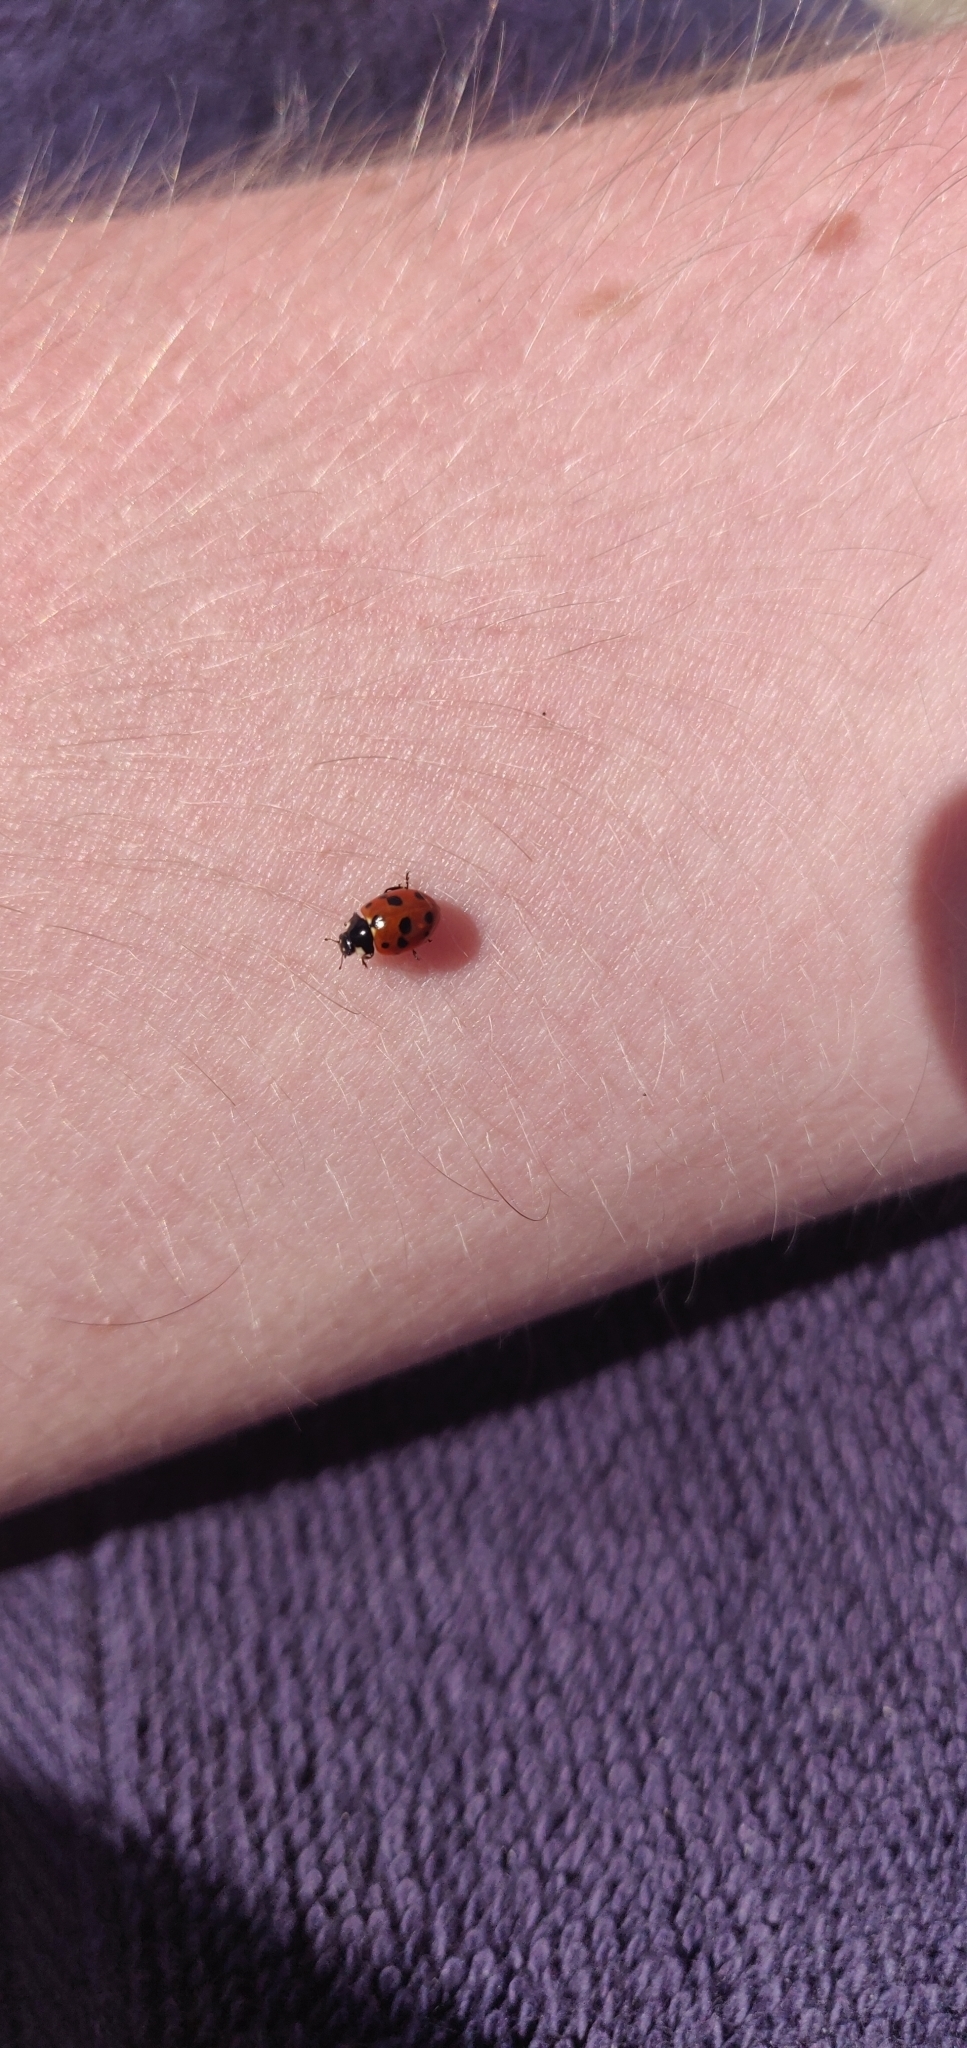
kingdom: Animalia
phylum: Arthropoda
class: Insecta
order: Coleoptera
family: Coccinellidae
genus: Coccinella
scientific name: Coccinella undecimpunctata
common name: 11-spot ladybird
